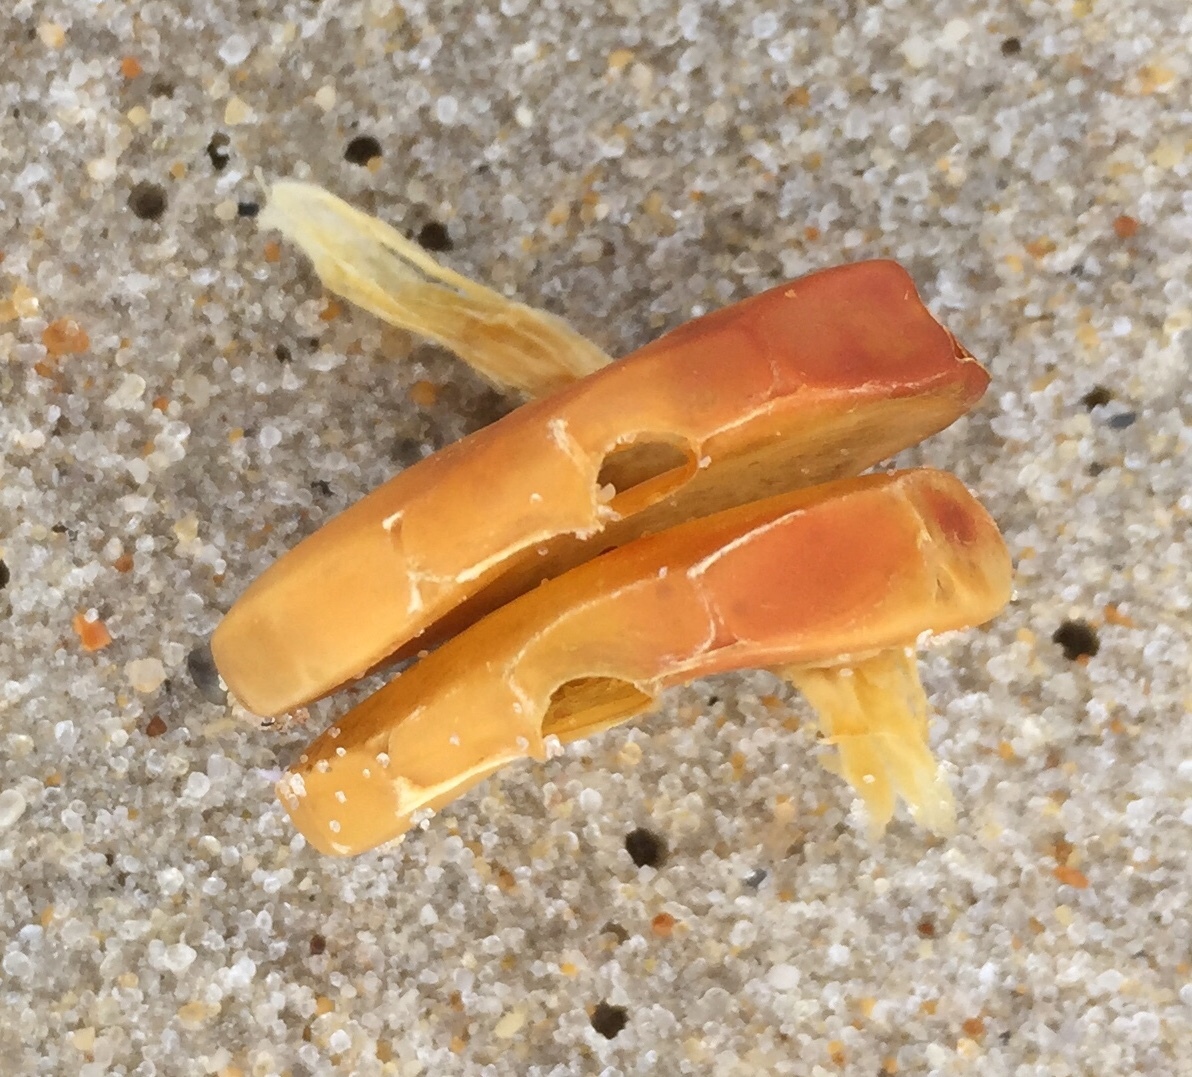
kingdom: Animalia
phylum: Mollusca
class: Gastropoda
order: Neogastropoda
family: Busyconidae
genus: Busycon
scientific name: Busycon carica
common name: Knobbed whelk
